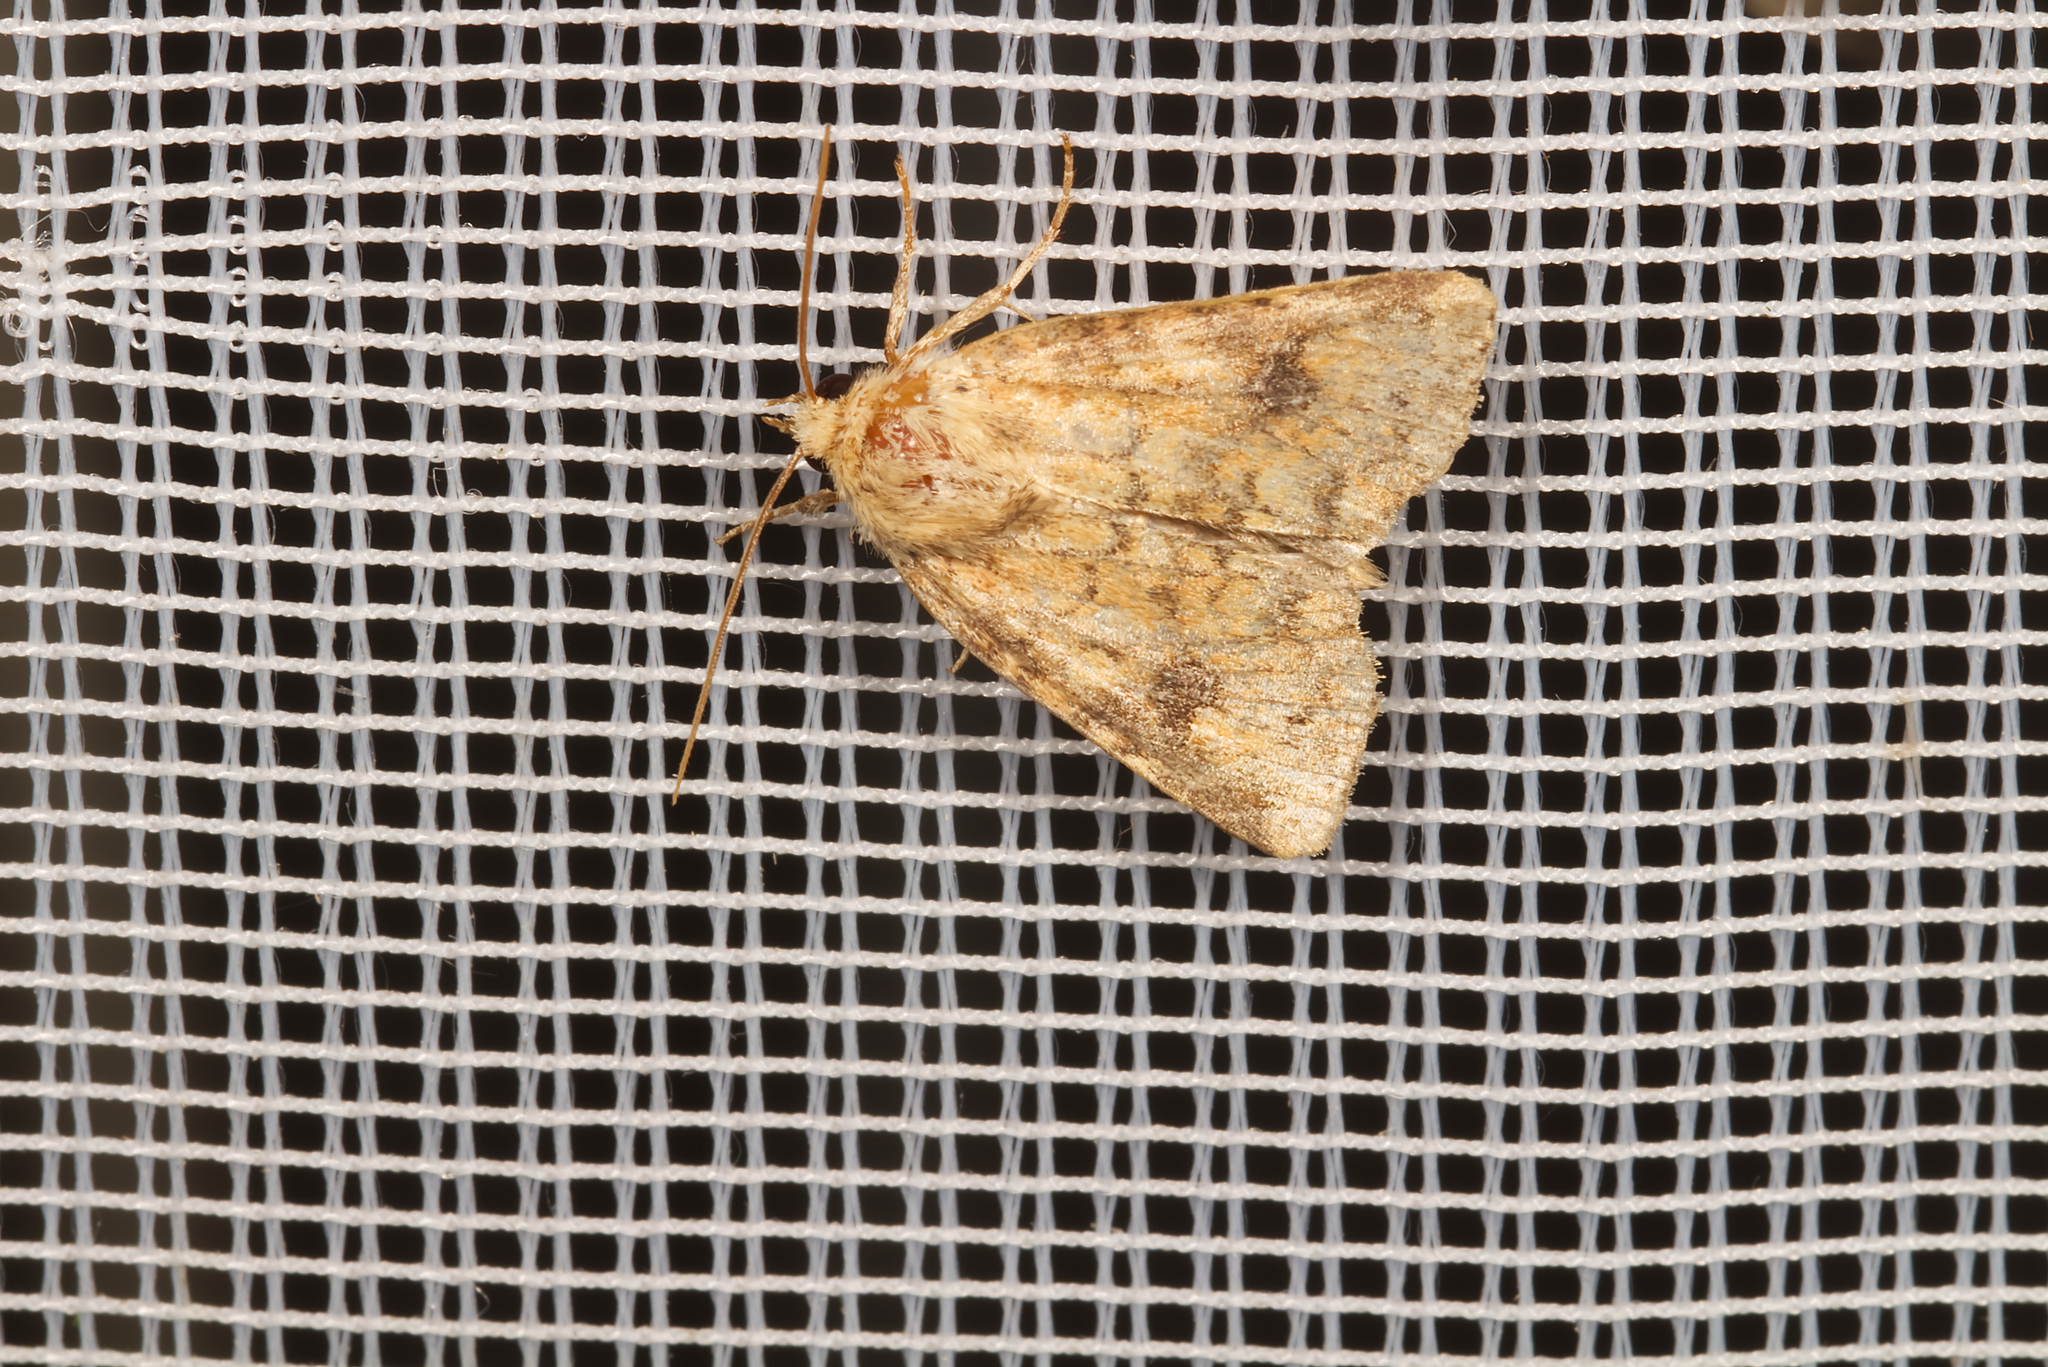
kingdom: Animalia
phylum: Arthropoda
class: Insecta
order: Lepidoptera
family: Noctuidae
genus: Atypha
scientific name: Atypha pulmonaris
